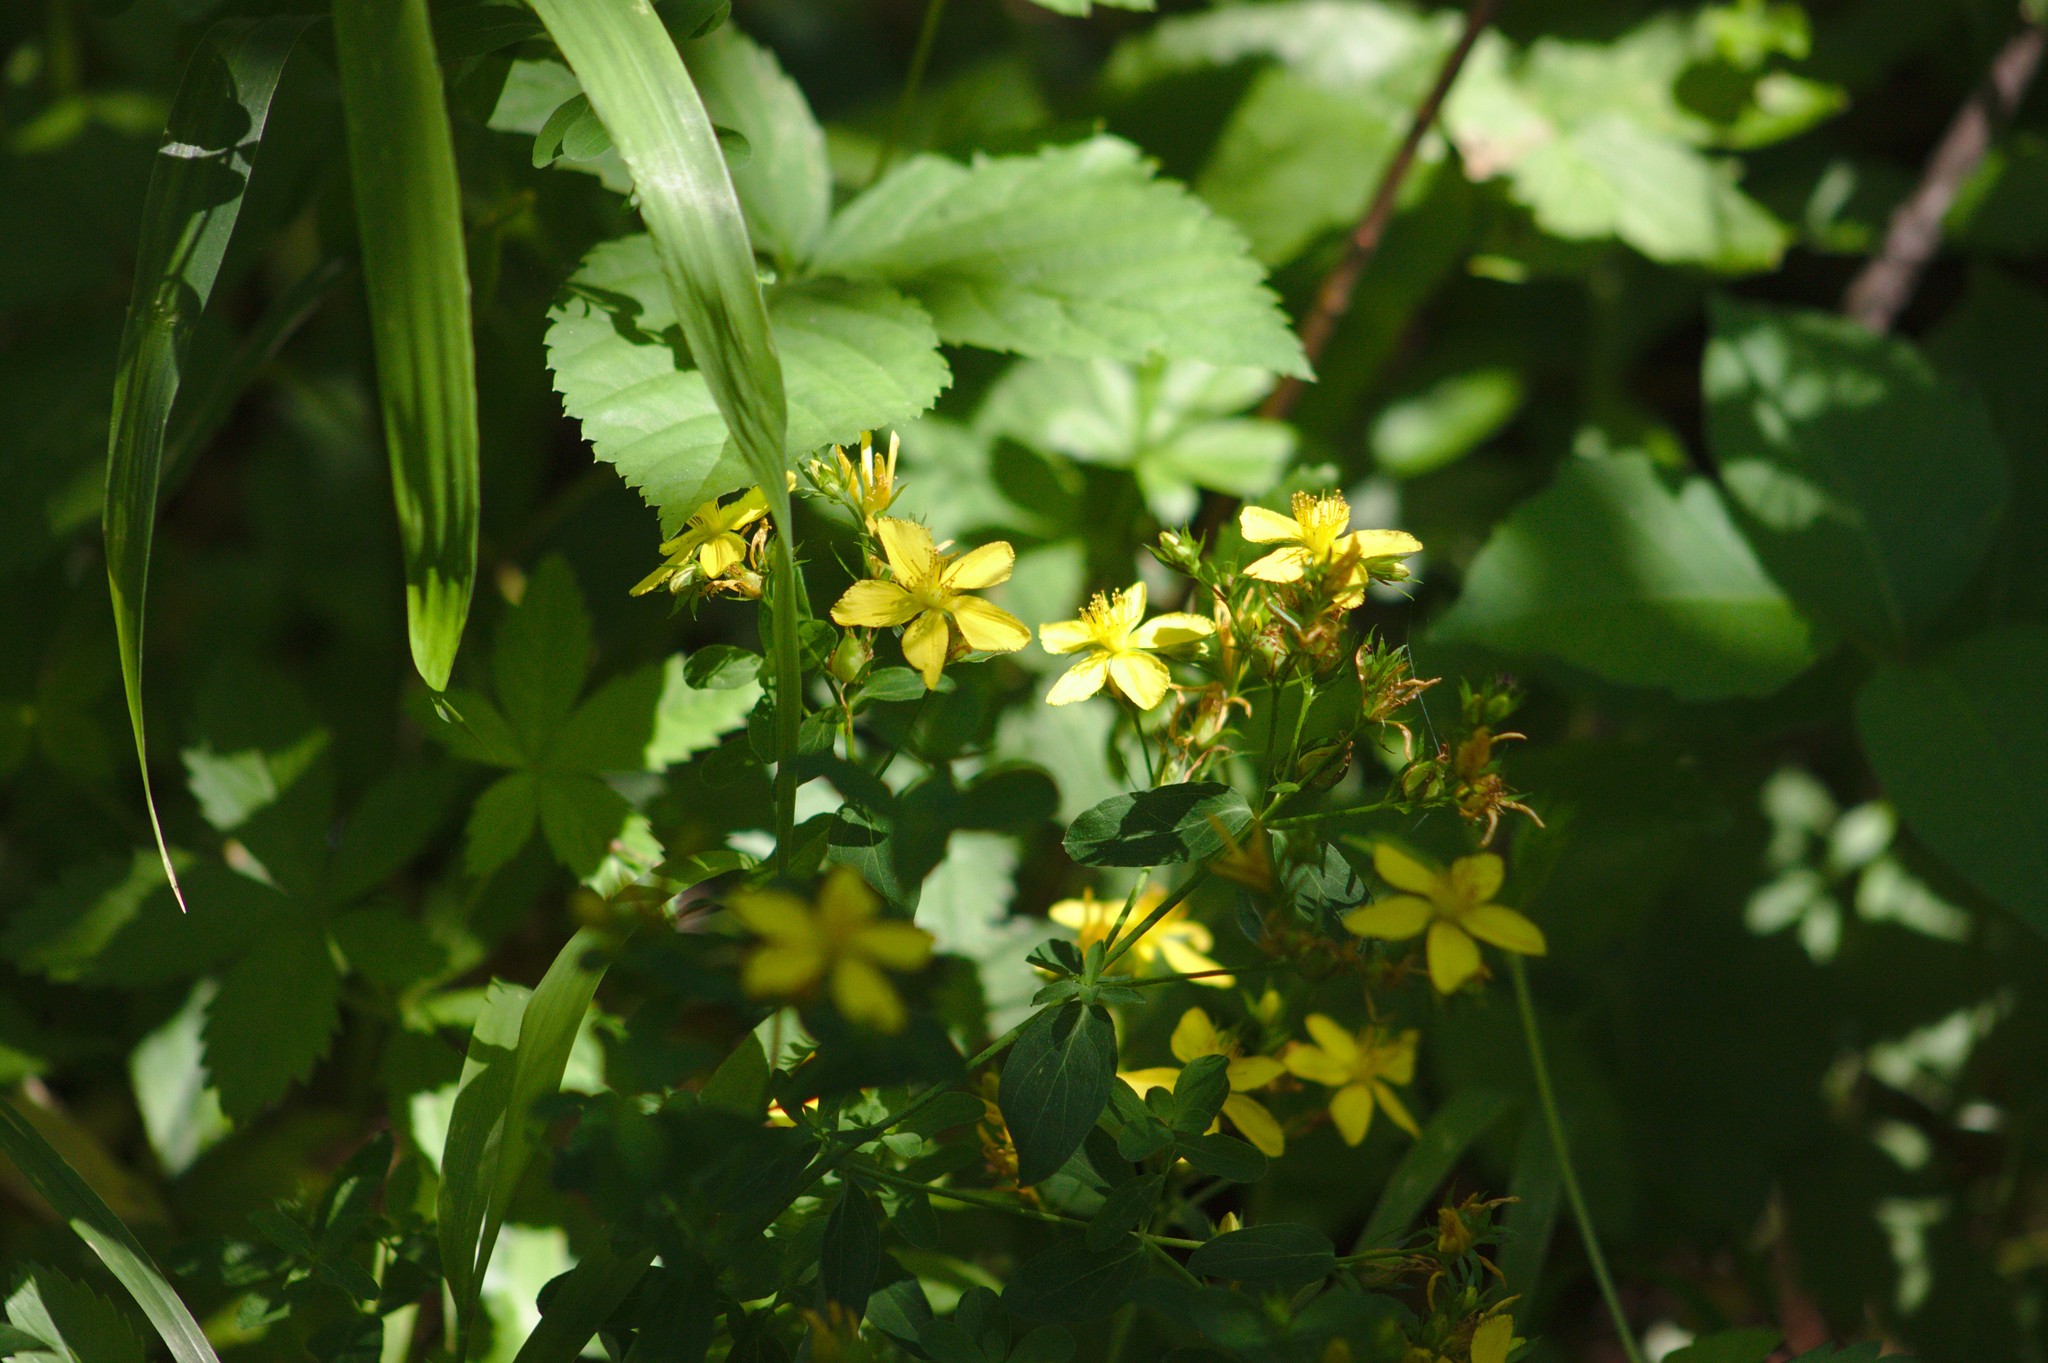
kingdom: Plantae
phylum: Tracheophyta
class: Magnoliopsida
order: Malpighiales
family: Hypericaceae
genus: Hypericum
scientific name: Hypericum perforatum
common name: Common st. johnswort
